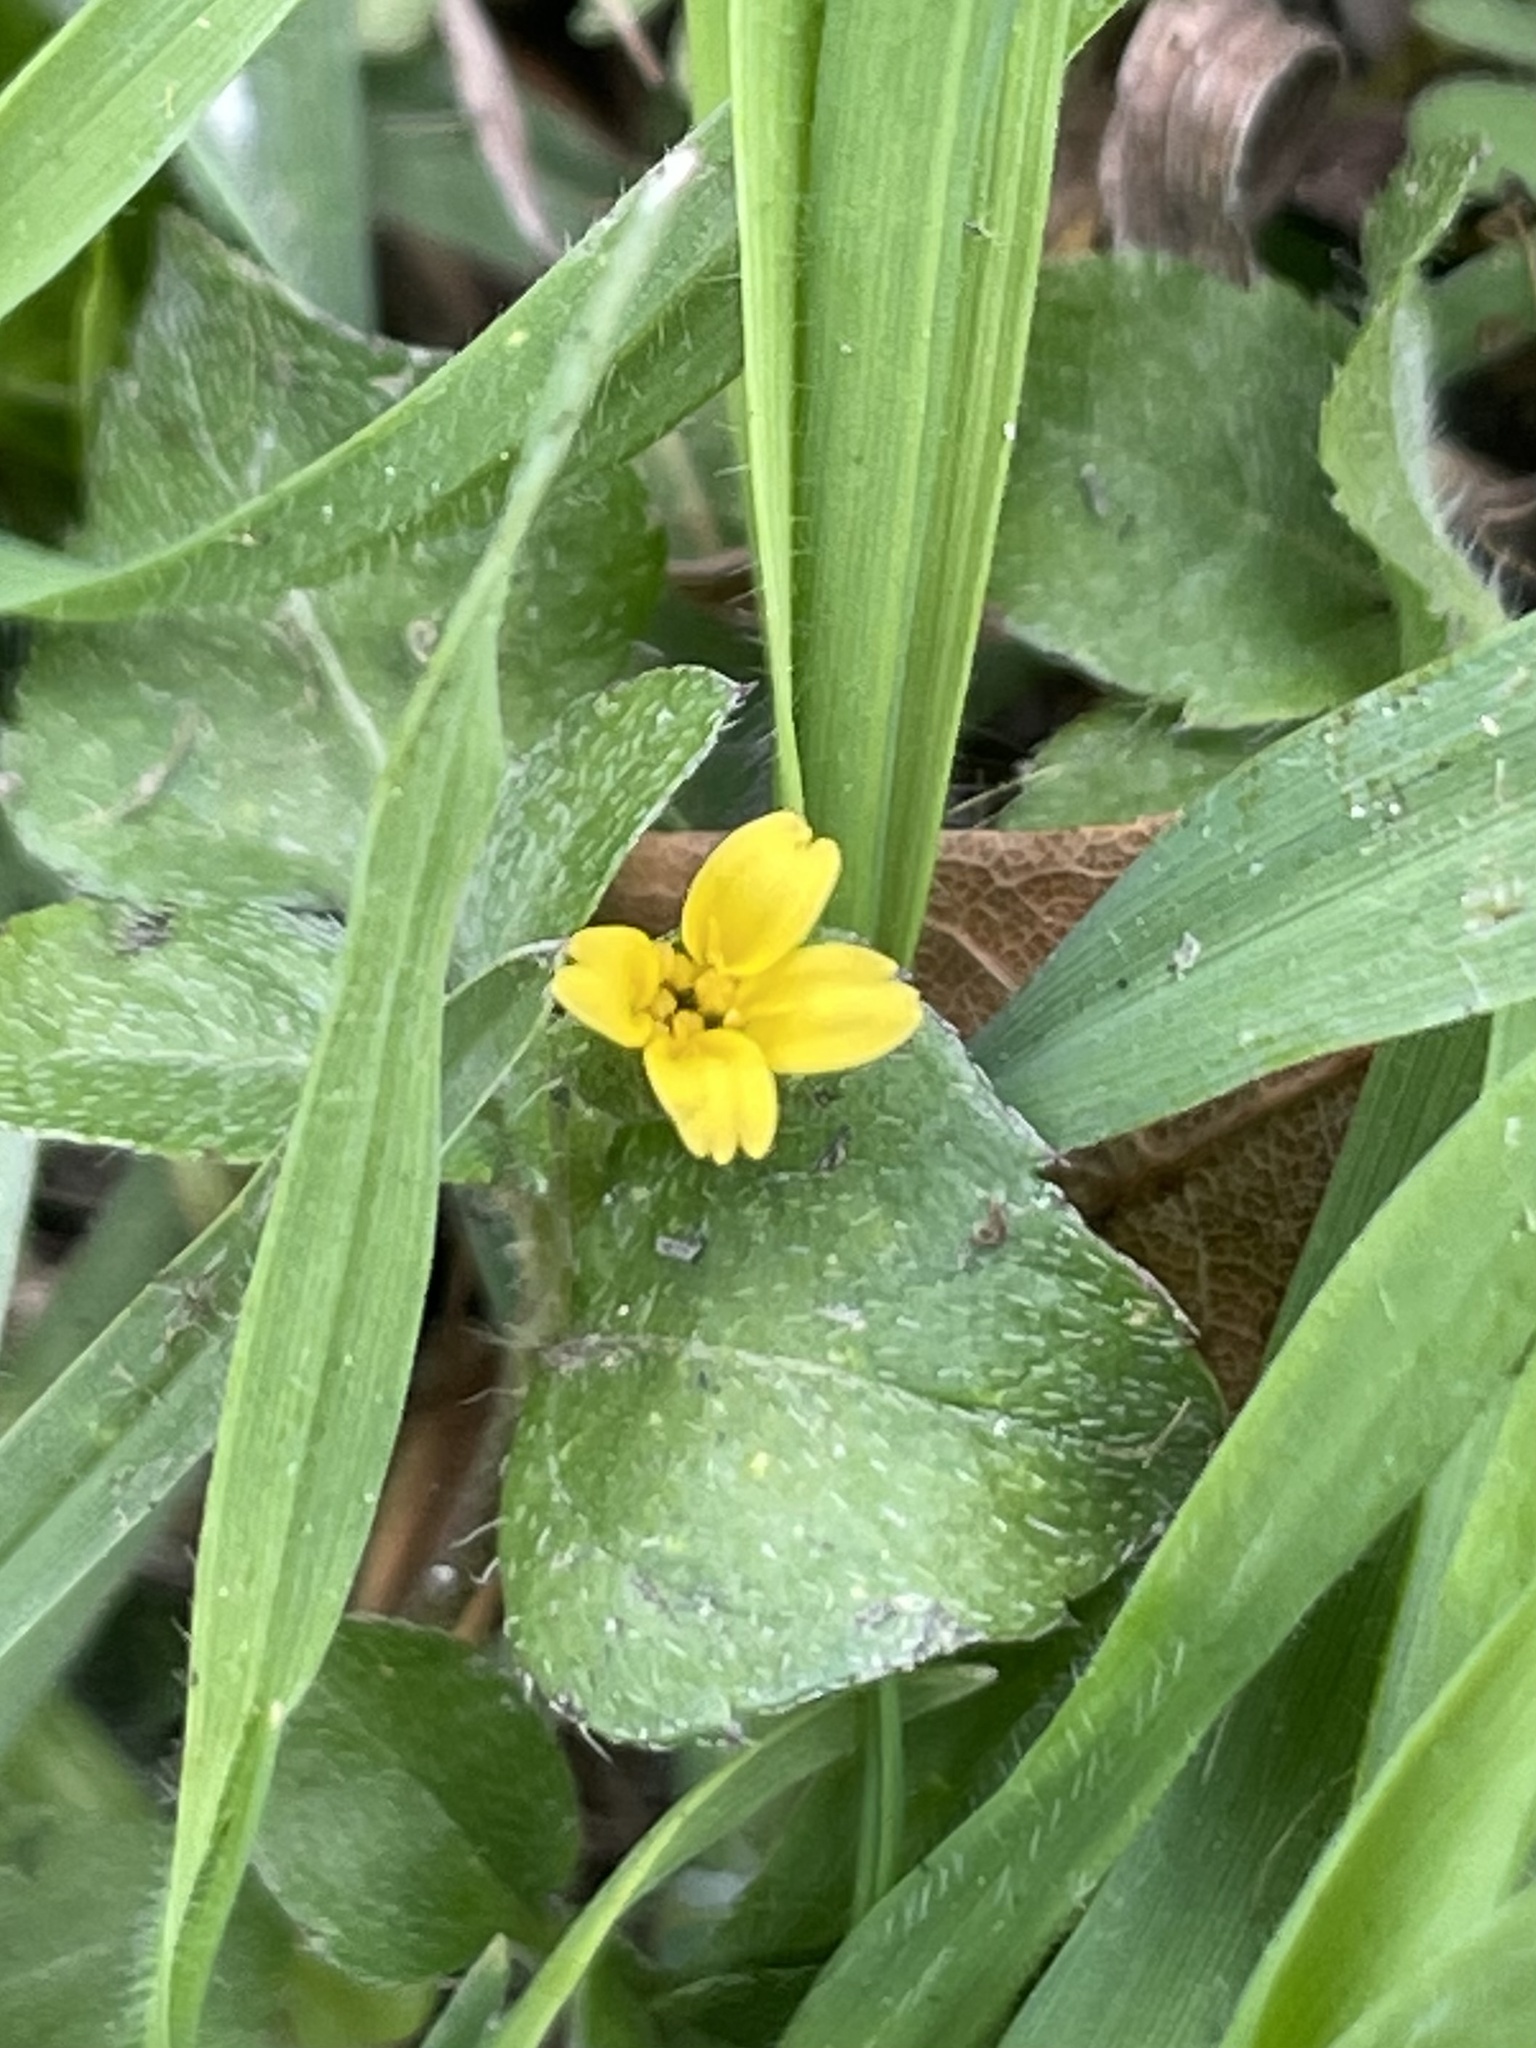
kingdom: Plantae
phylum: Tracheophyta
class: Magnoliopsida
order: Asterales
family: Asteraceae
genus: Calyptocarpus
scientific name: Calyptocarpus vialis
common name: Straggler daisy
